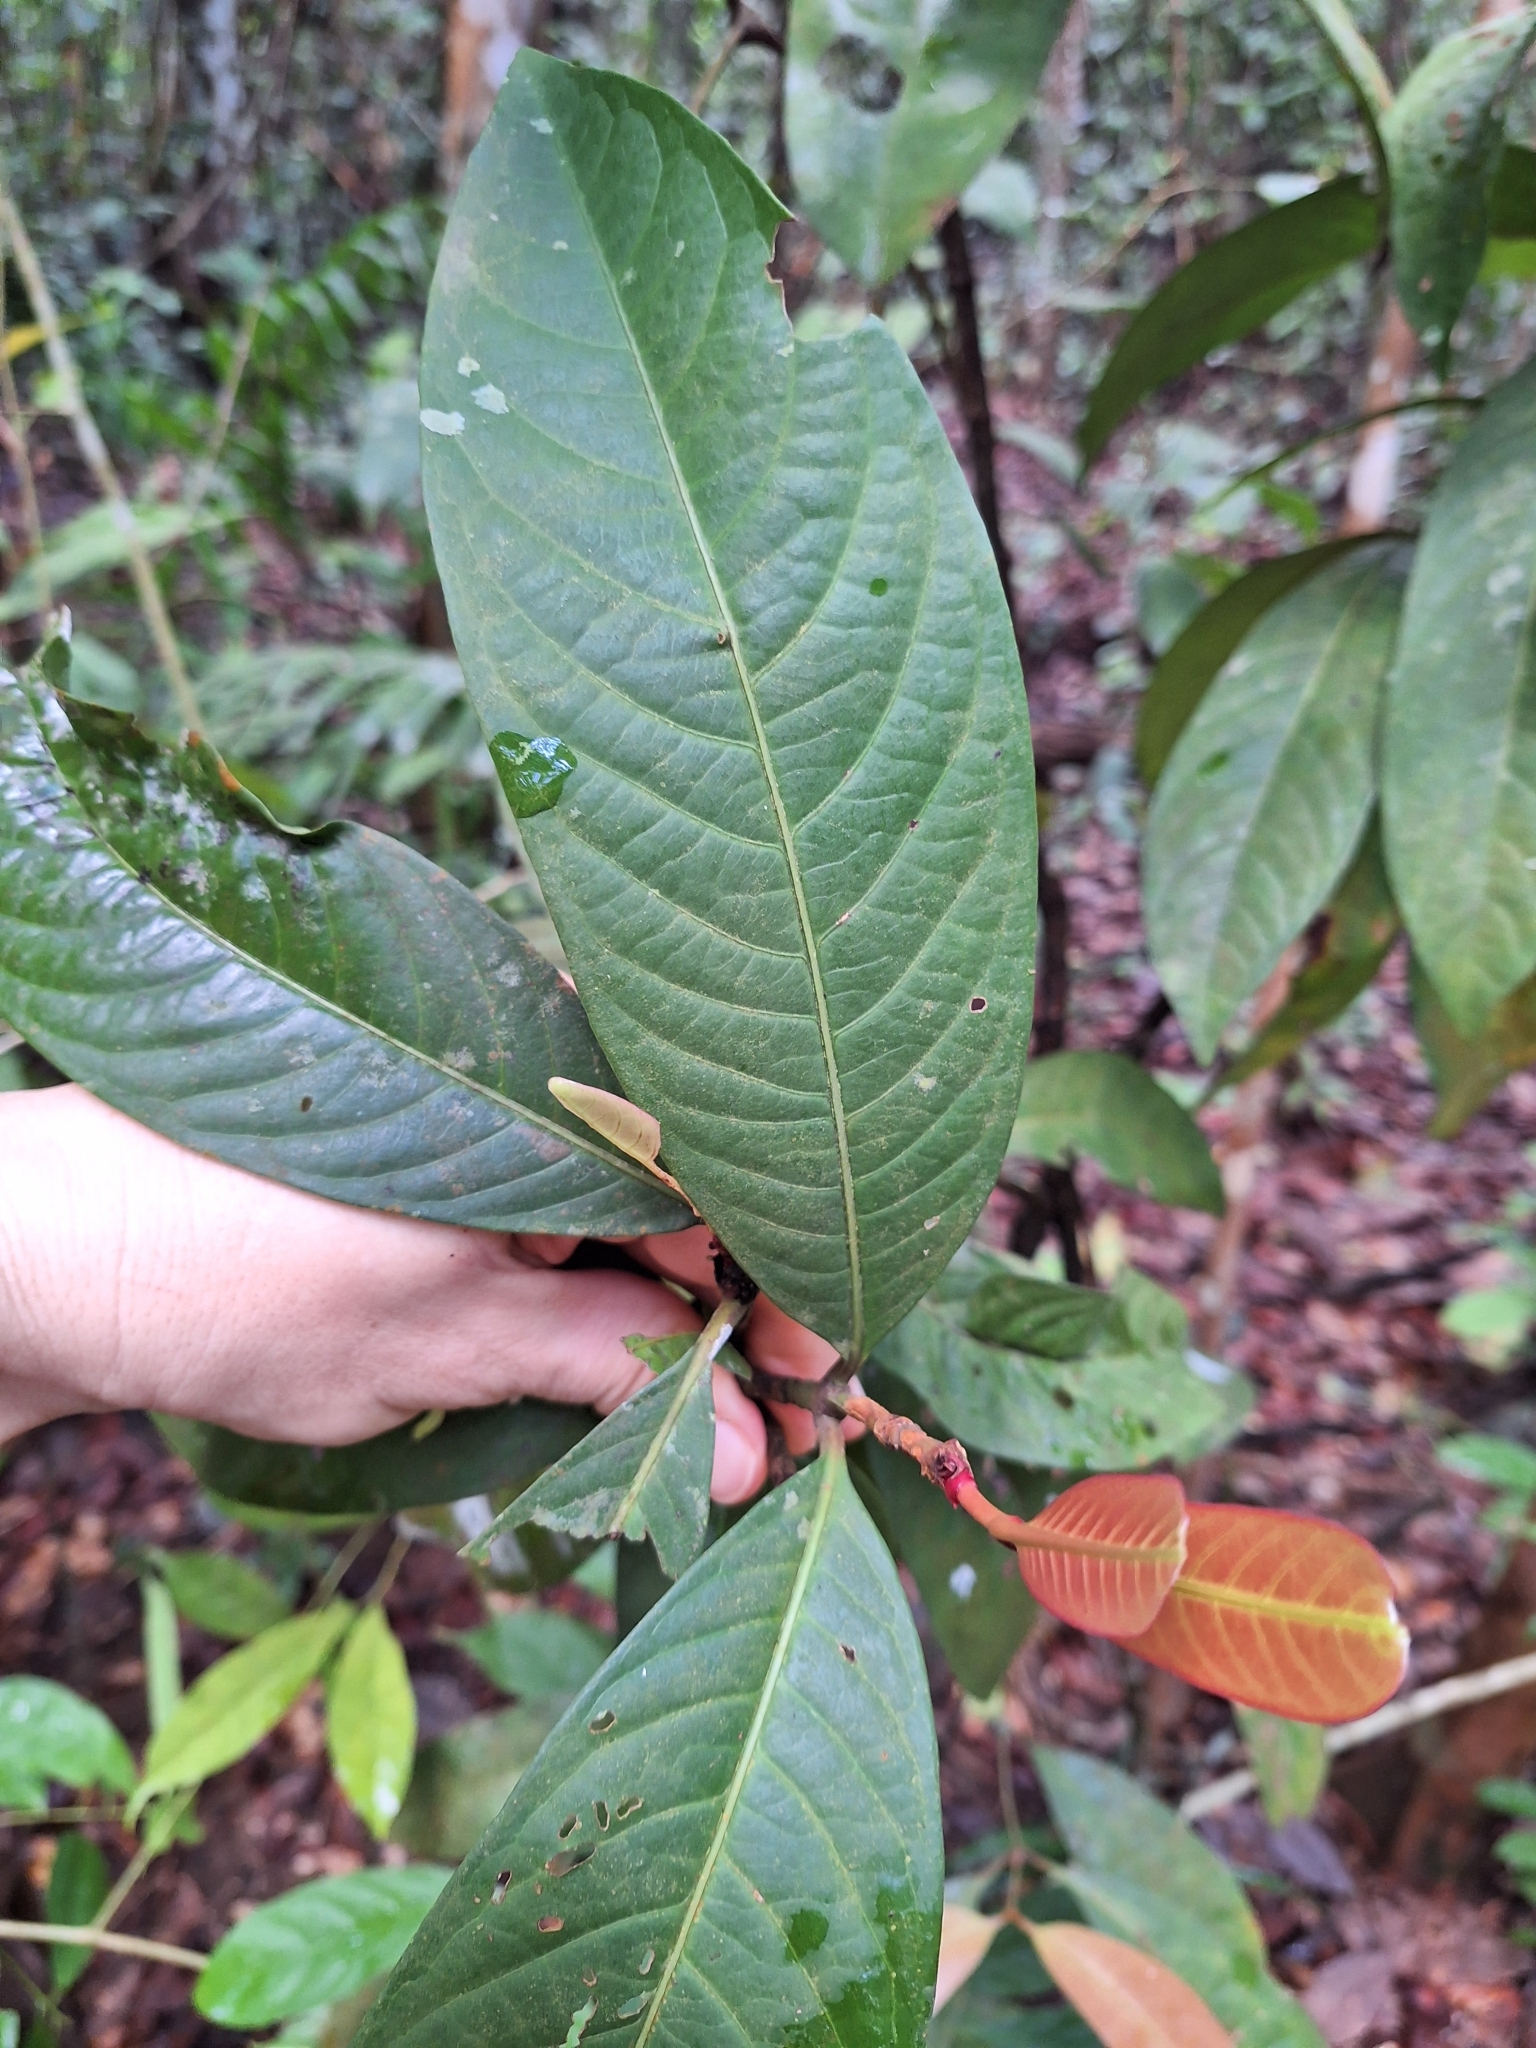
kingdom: Plantae
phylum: Tracheophyta
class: Magnoliopsida
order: Gentianales
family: Rubiaceae
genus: Ixora
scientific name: Ixora congesta
